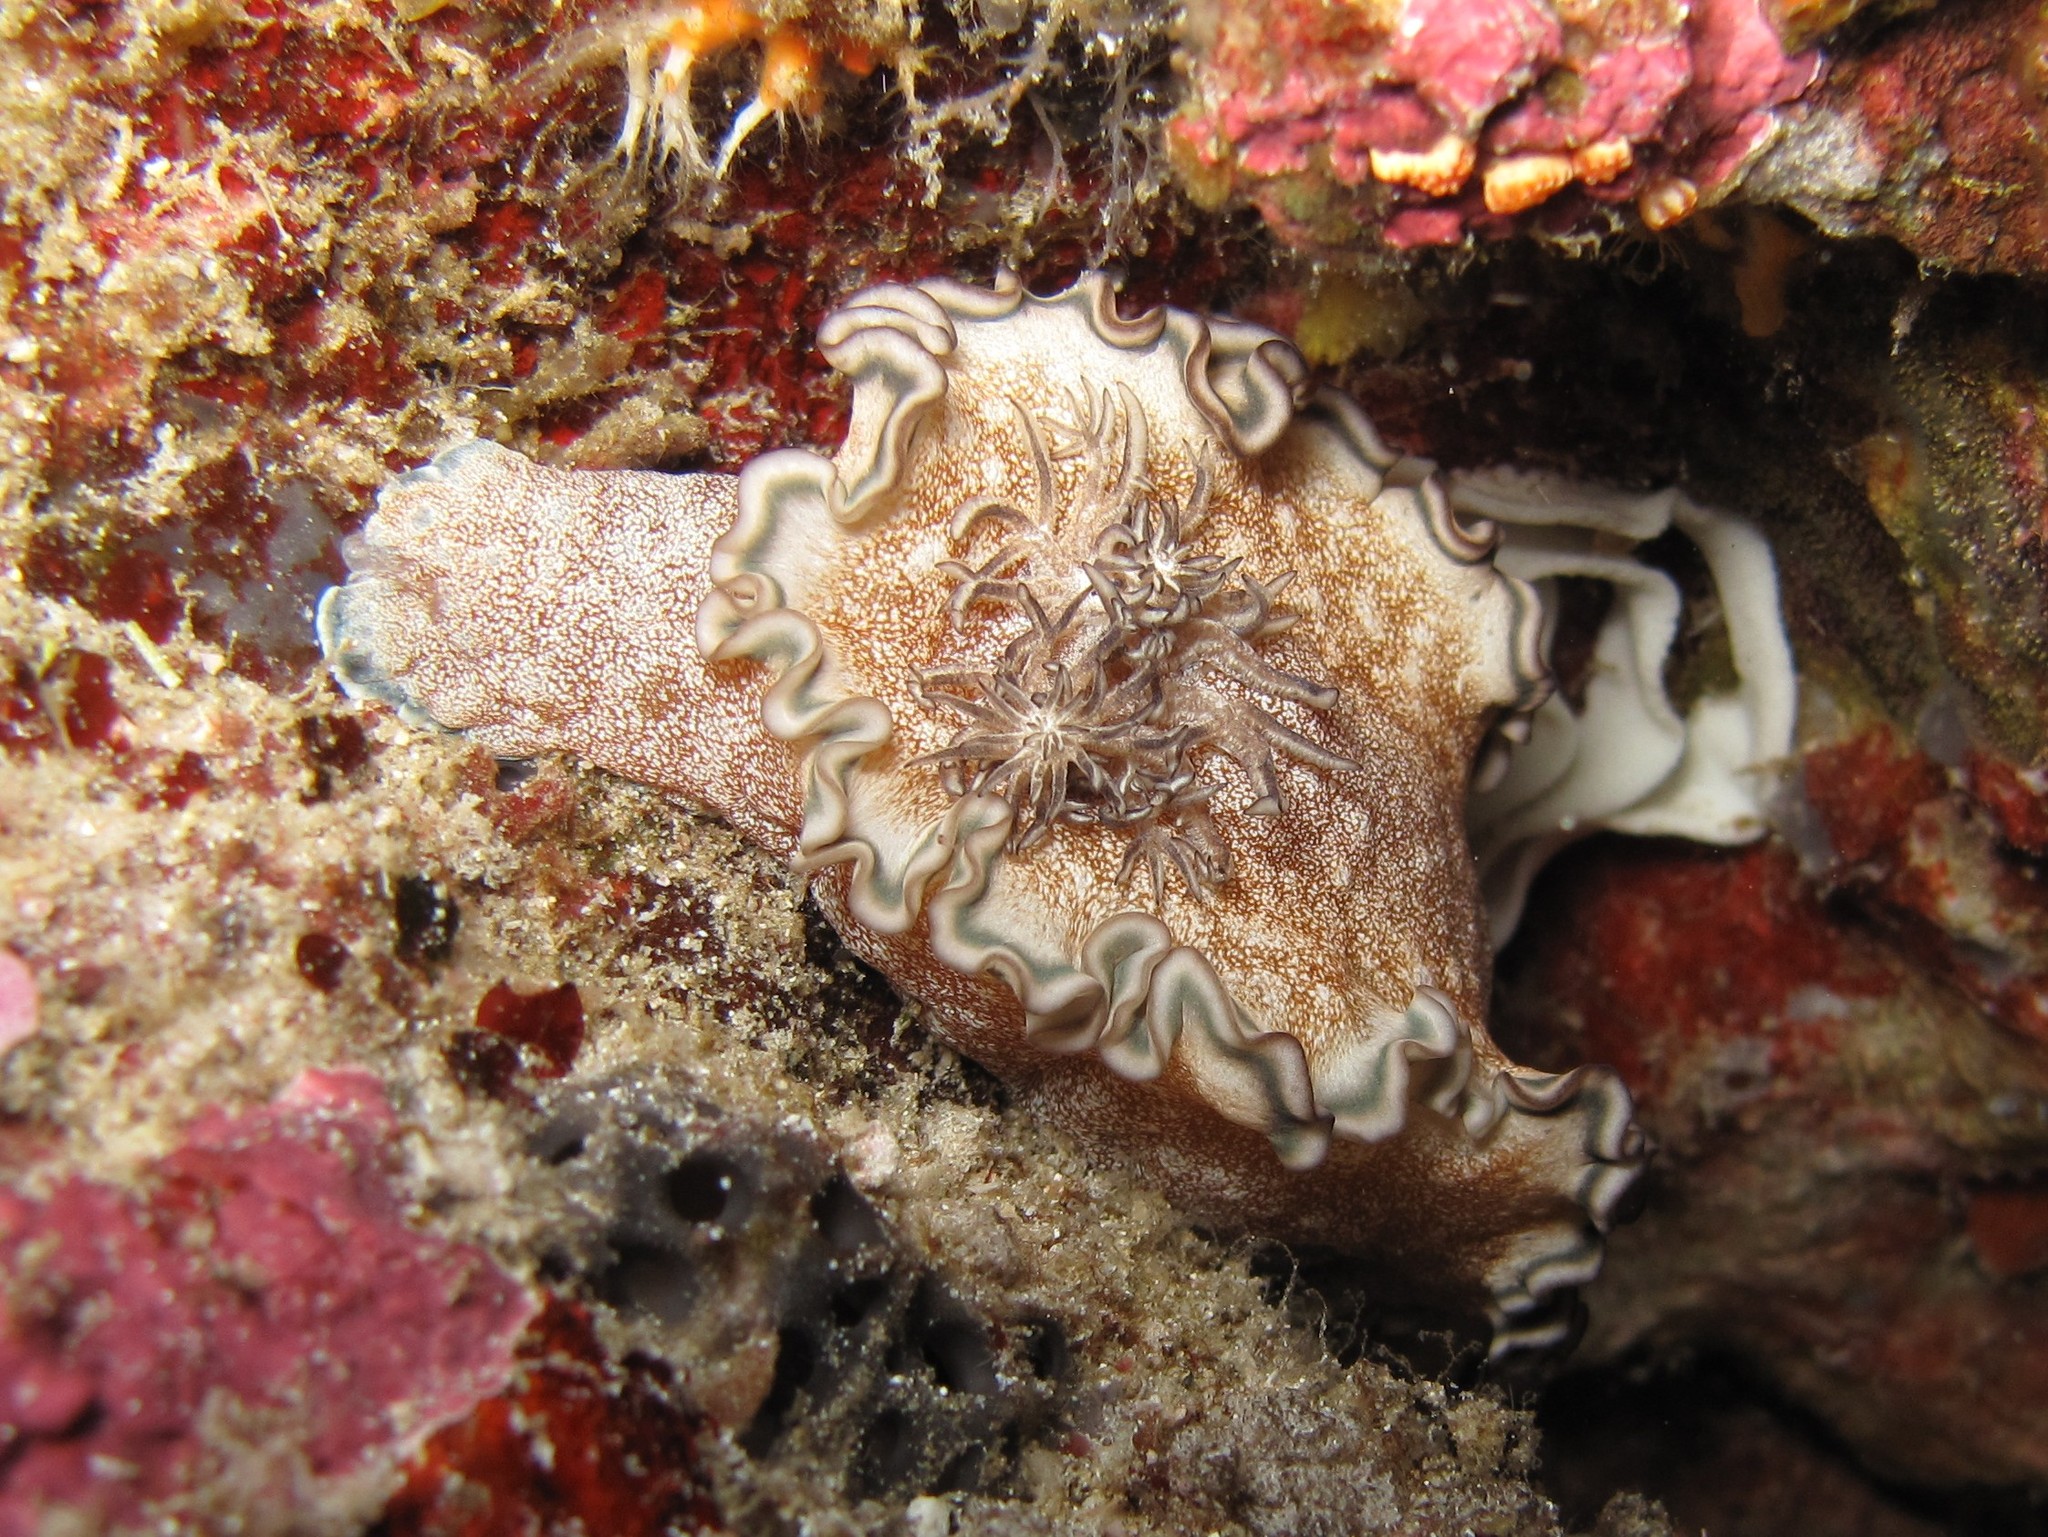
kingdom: Animalia
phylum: Mollusca
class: Gastropoda
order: Nudibranchia
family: Chromodorididae
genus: Glossodoris
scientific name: Glossodoris hikuerensis
